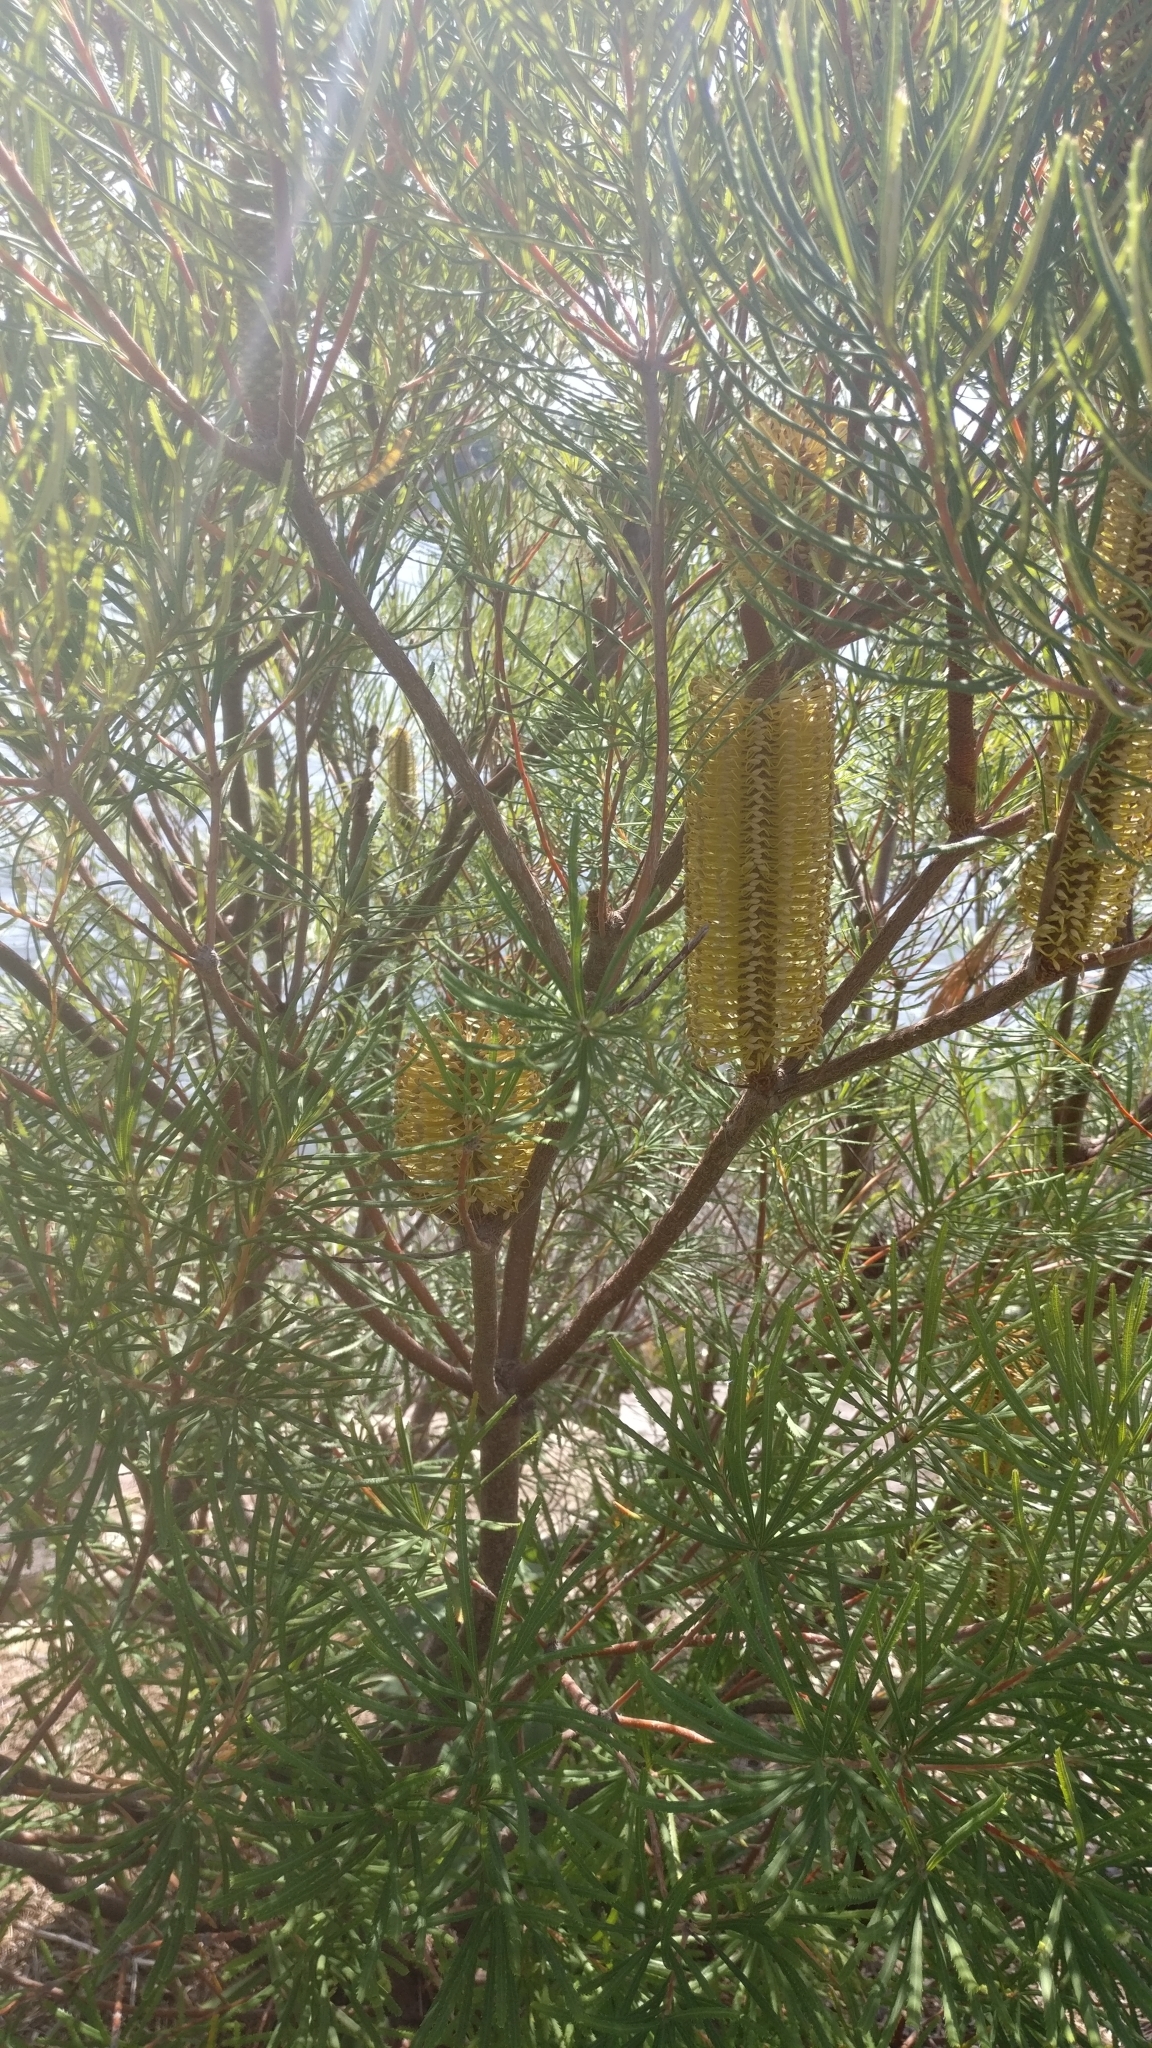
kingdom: Plantae
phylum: Tracheophyta
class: Magnoliopsida
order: Proteales
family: Proteaceae
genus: Banksia
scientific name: Banksia spinulosa
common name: Hairpin banksia
